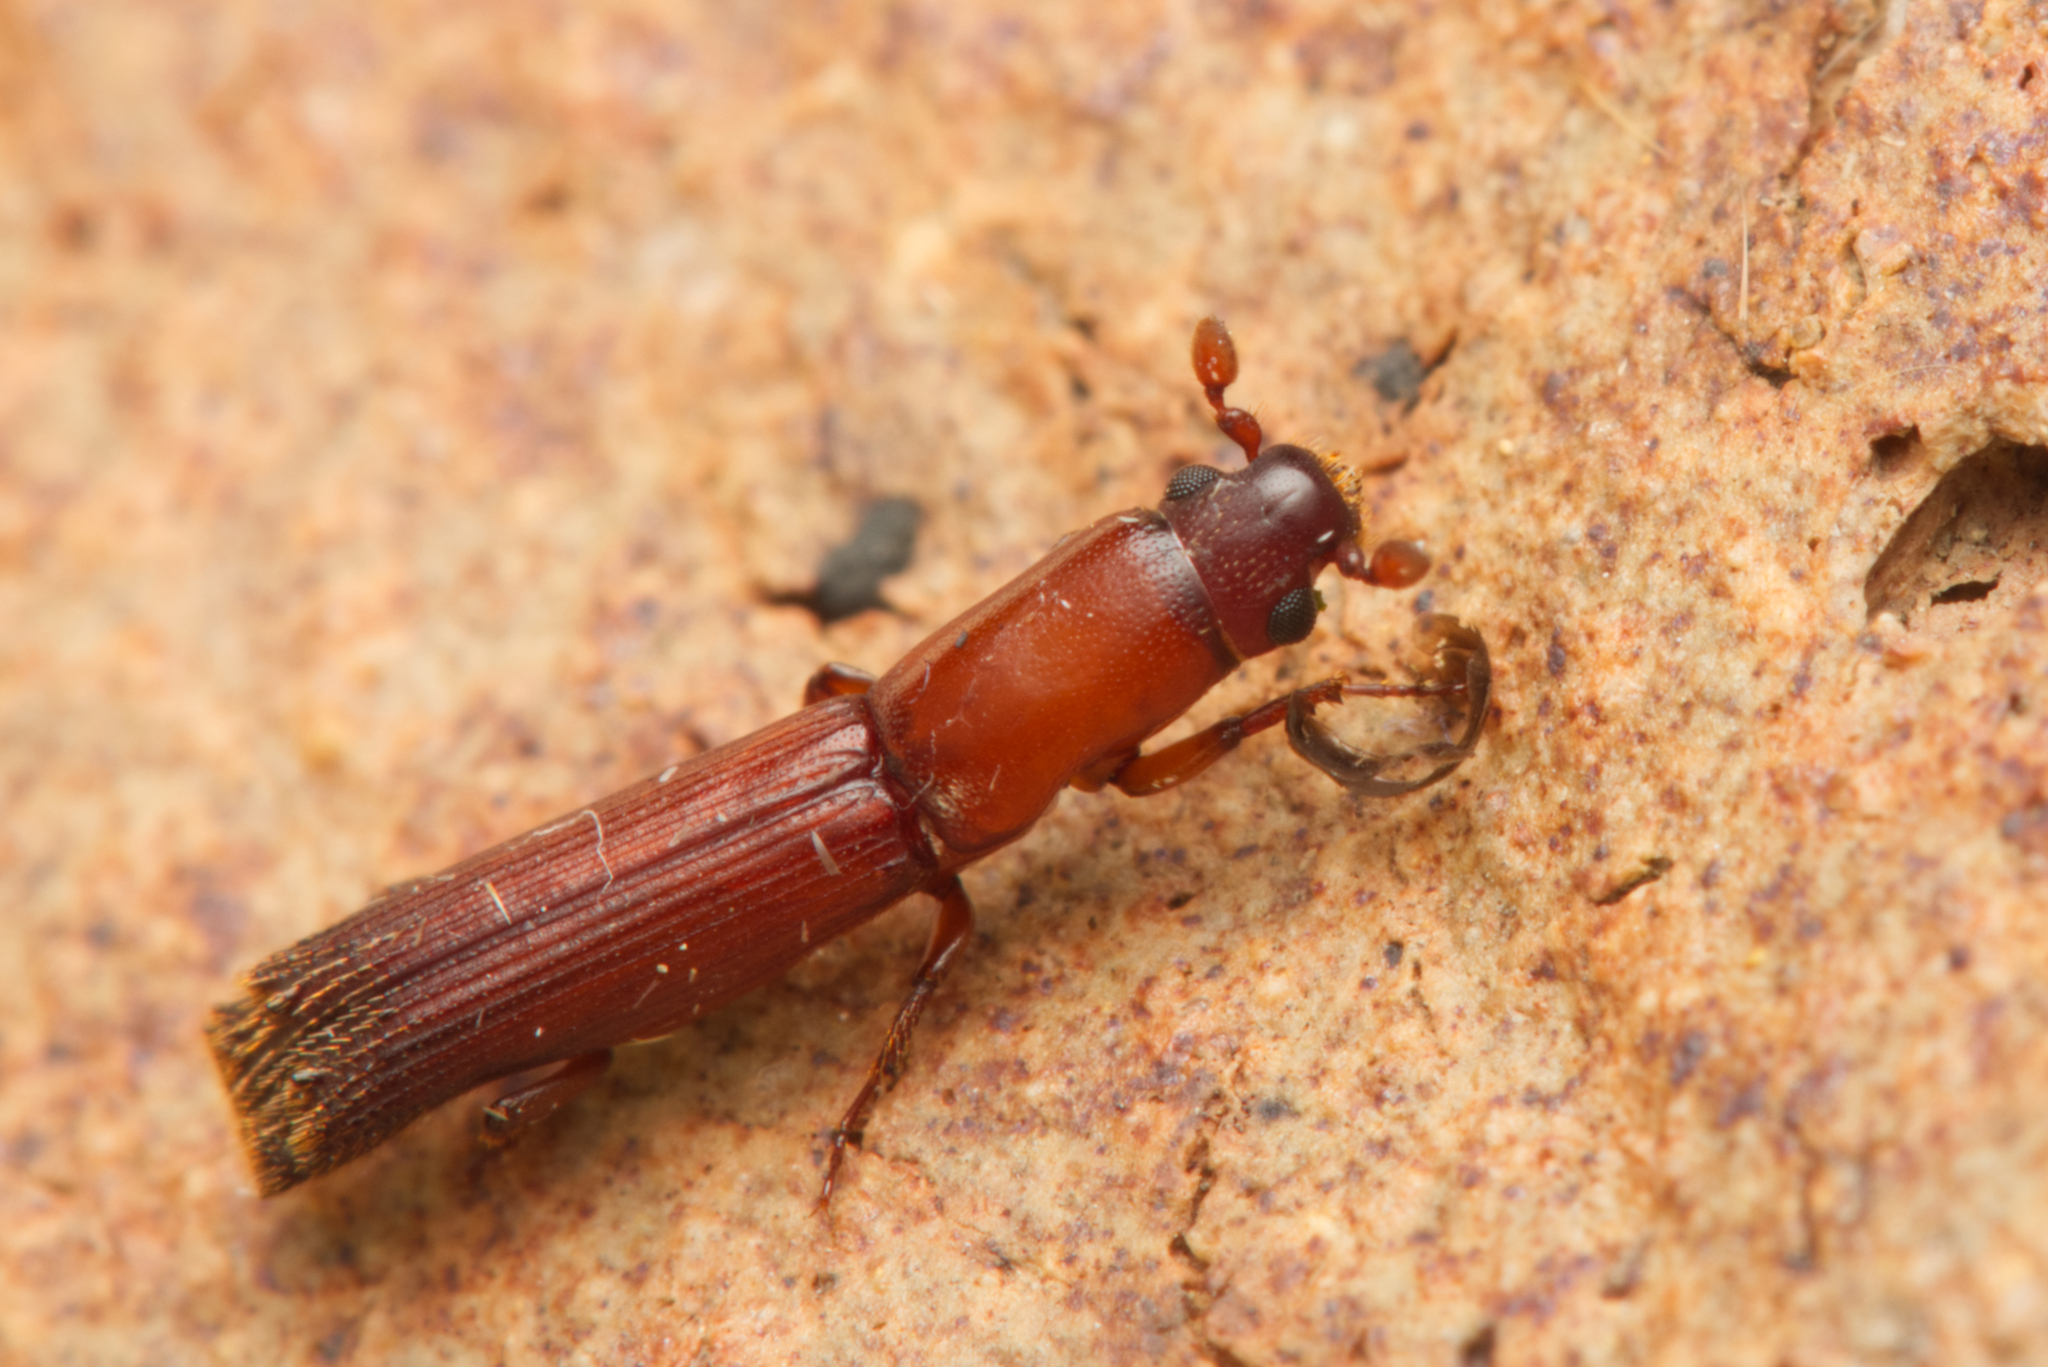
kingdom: Animalia
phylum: Arthropoda
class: Insecta
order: Coleoptera
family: Curculionidae
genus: Notoplatypus
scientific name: Notoplatypus elongatus
